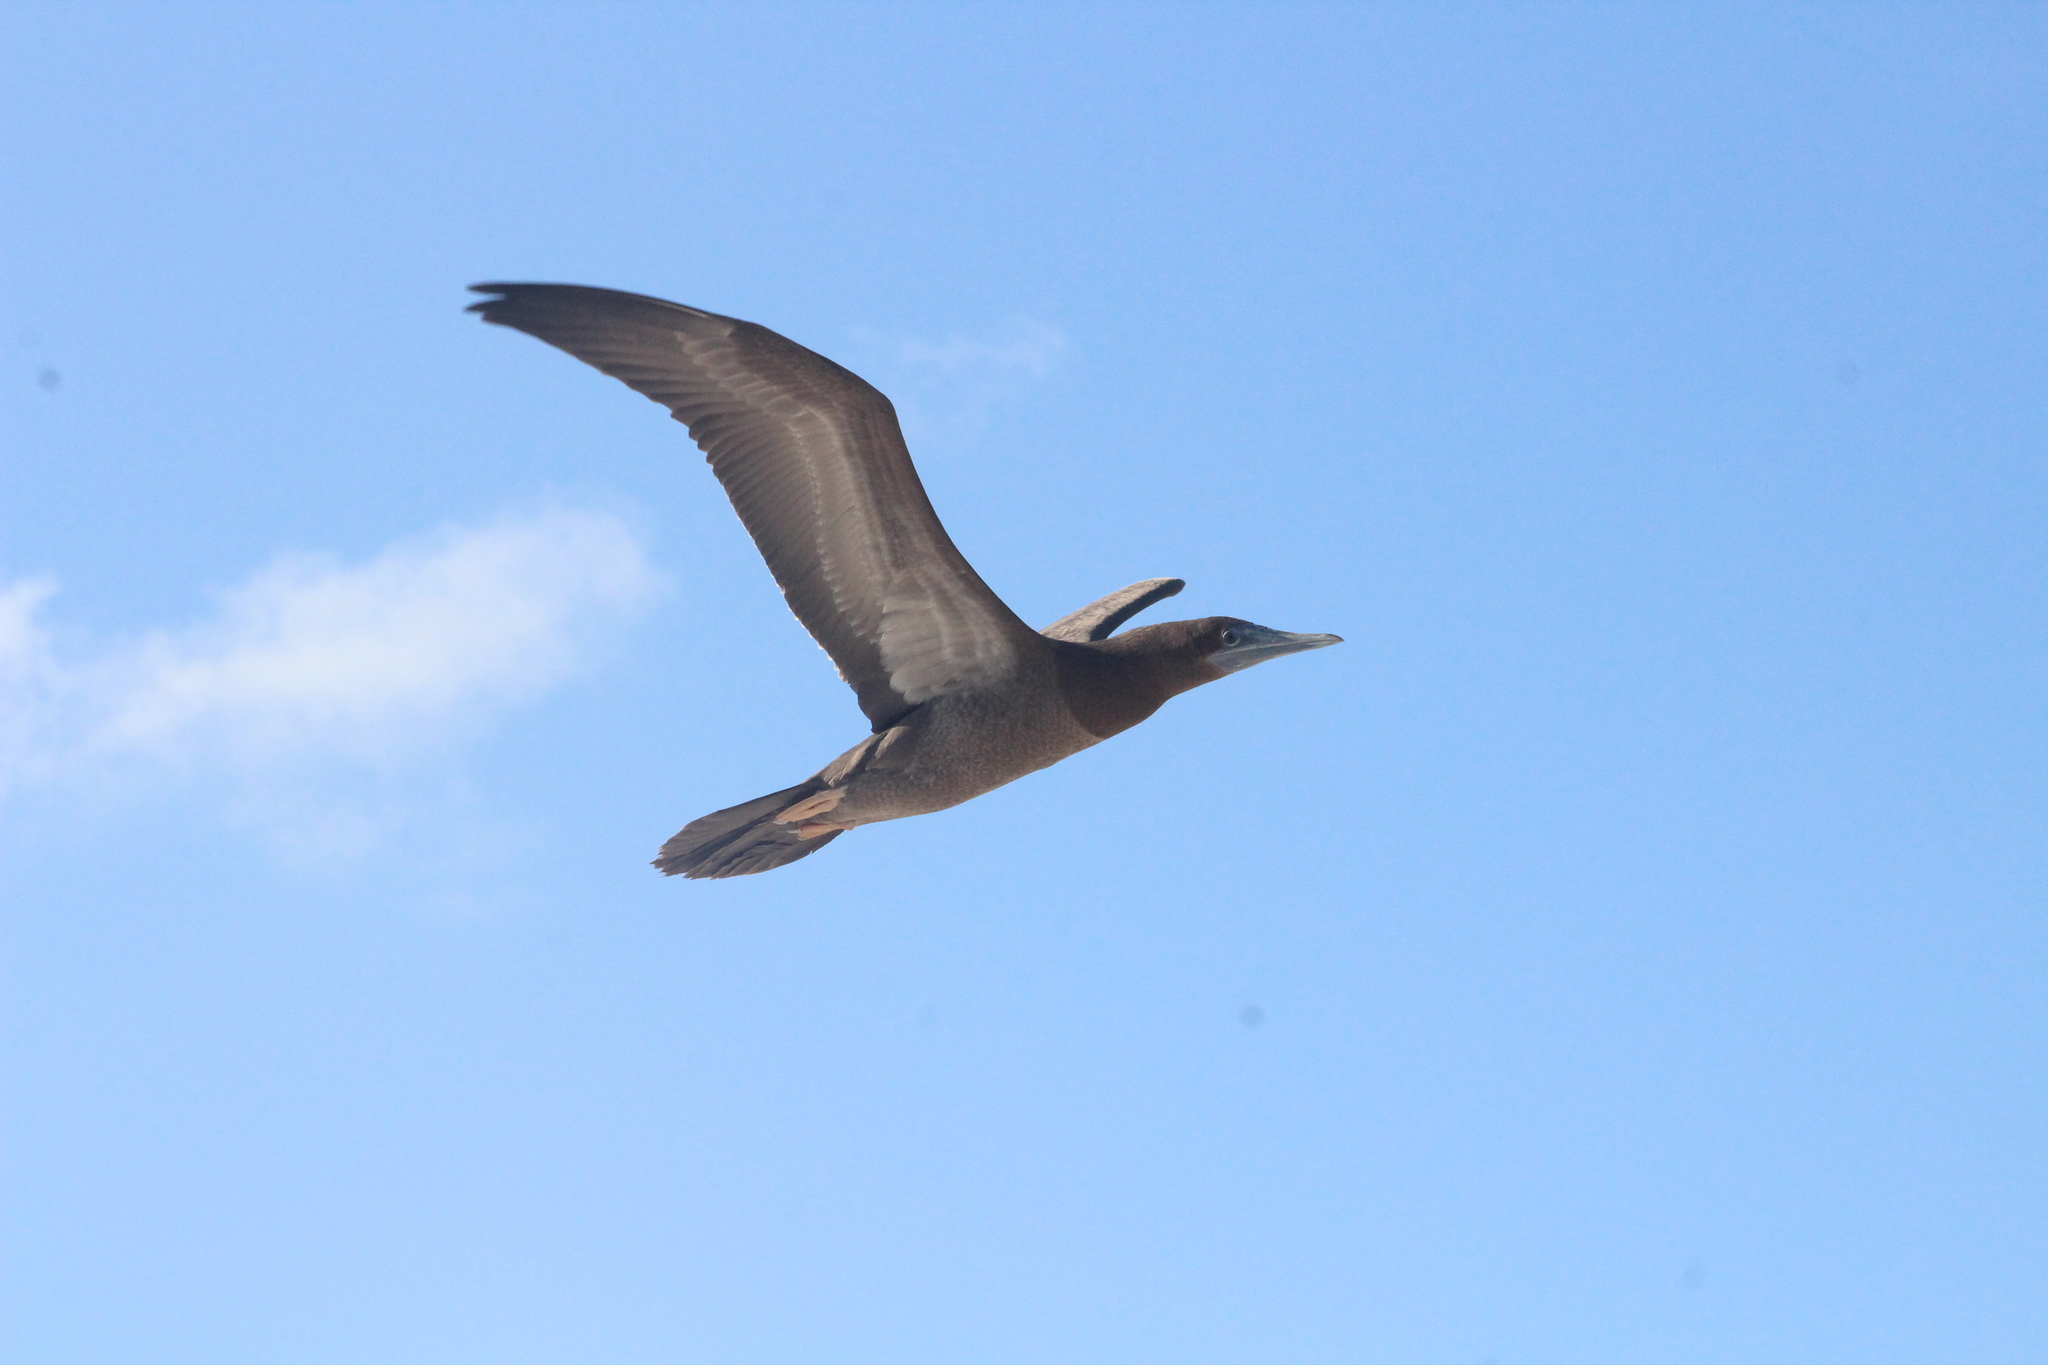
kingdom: Animalia
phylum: Chordata
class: Aves
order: Suliformes
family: Sulidae
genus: Sula
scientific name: Sula leucogaster
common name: Brown booby
